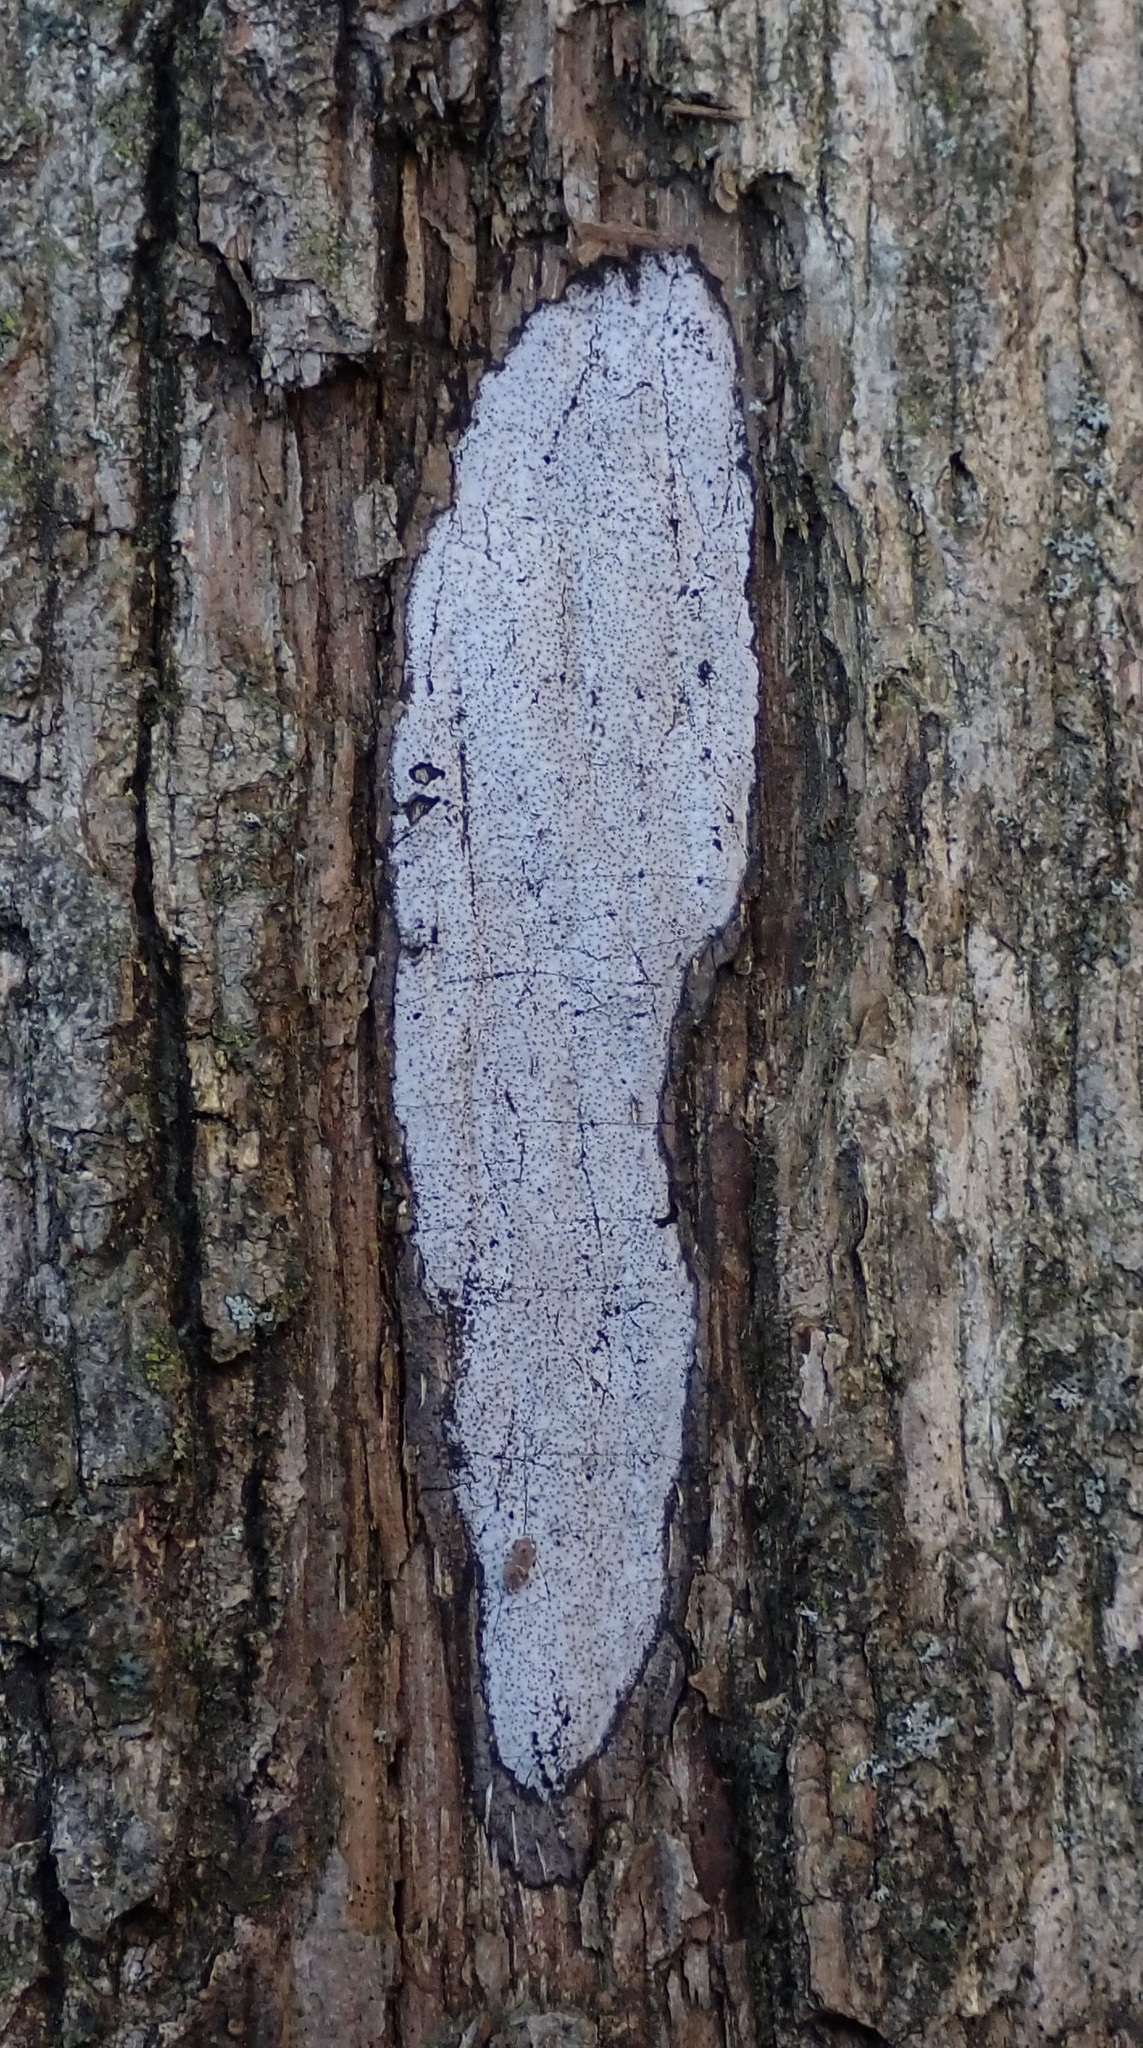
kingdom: Fungi
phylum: Ascomycota
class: Sordariomycetes
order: Xylariales
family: Graphostromataceae
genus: Biscogniauxia
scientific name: Biscogniauxia atropunctata
